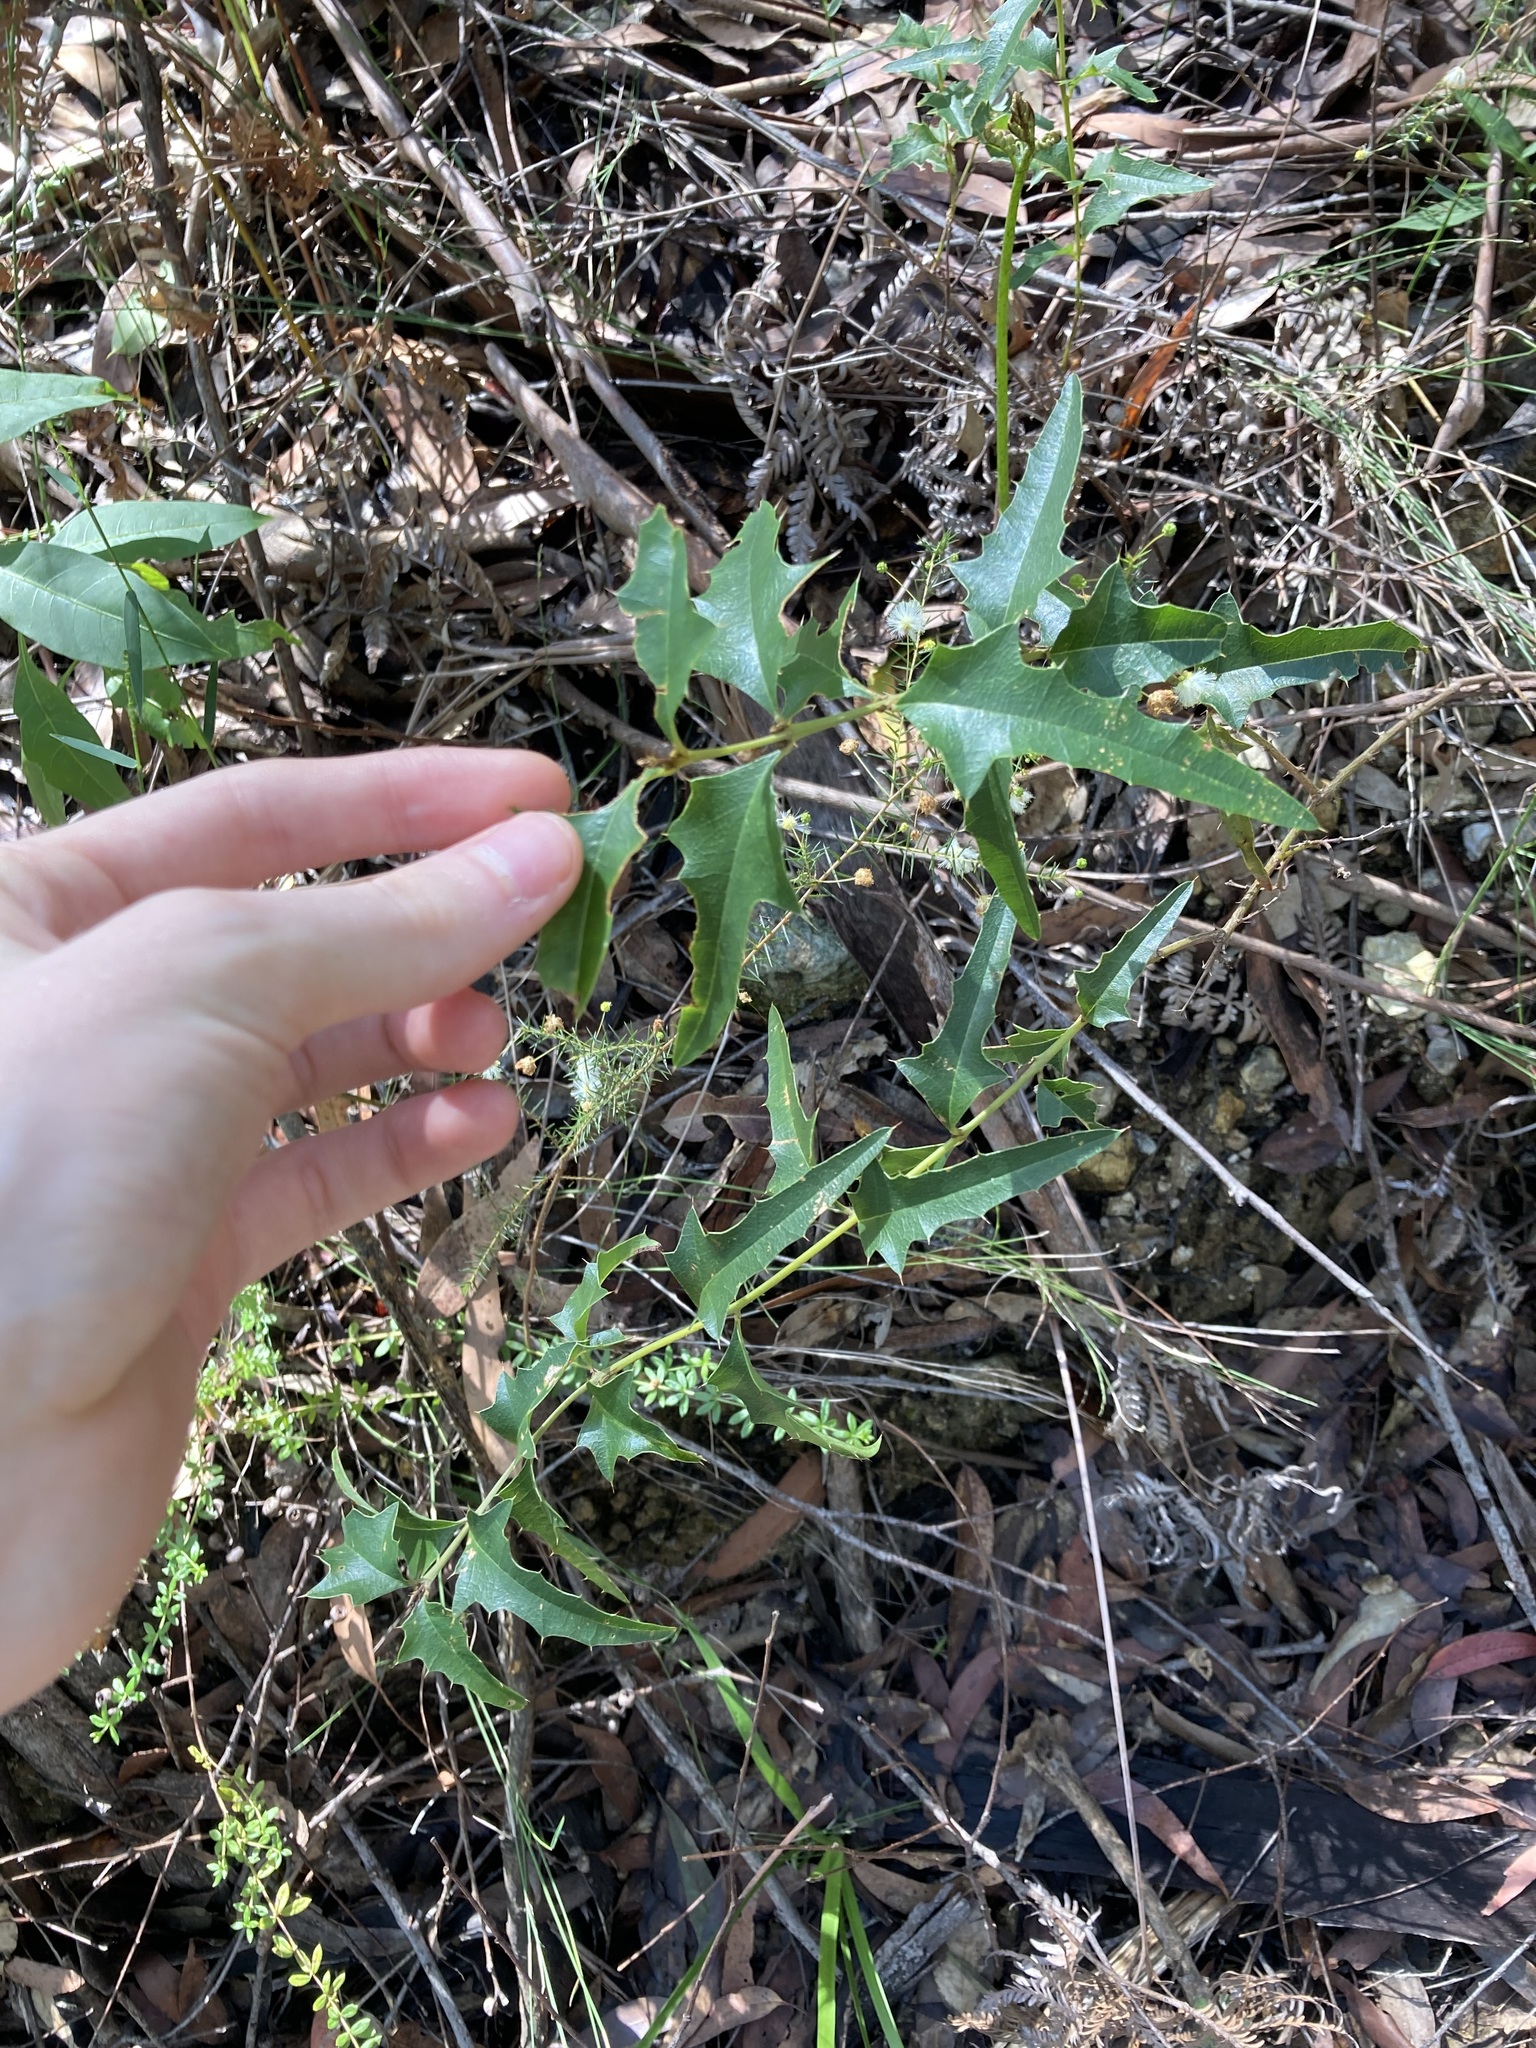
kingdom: Plantae
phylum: Tracheophyta
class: Magnoliopsida
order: Fabales
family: Fabaceae
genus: Podolobium
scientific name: Podolobium ilicifolium
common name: Native holly
